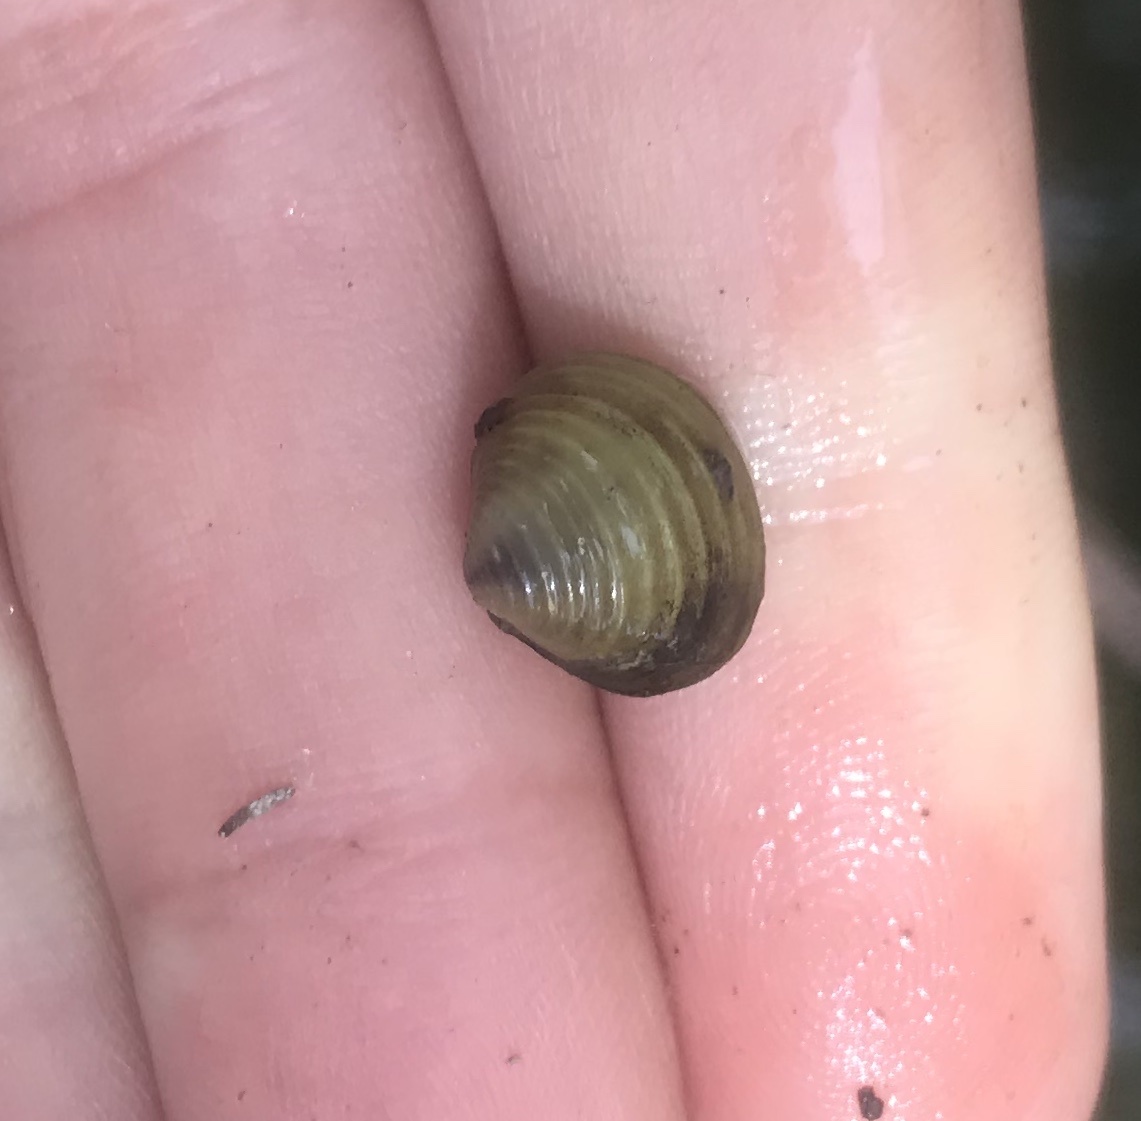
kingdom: Animalia
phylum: Mollusca
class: Bivalvia
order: Venerida
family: Cyrenidae
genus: Corbicula
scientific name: Corbicula fluminea
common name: Asian clam
